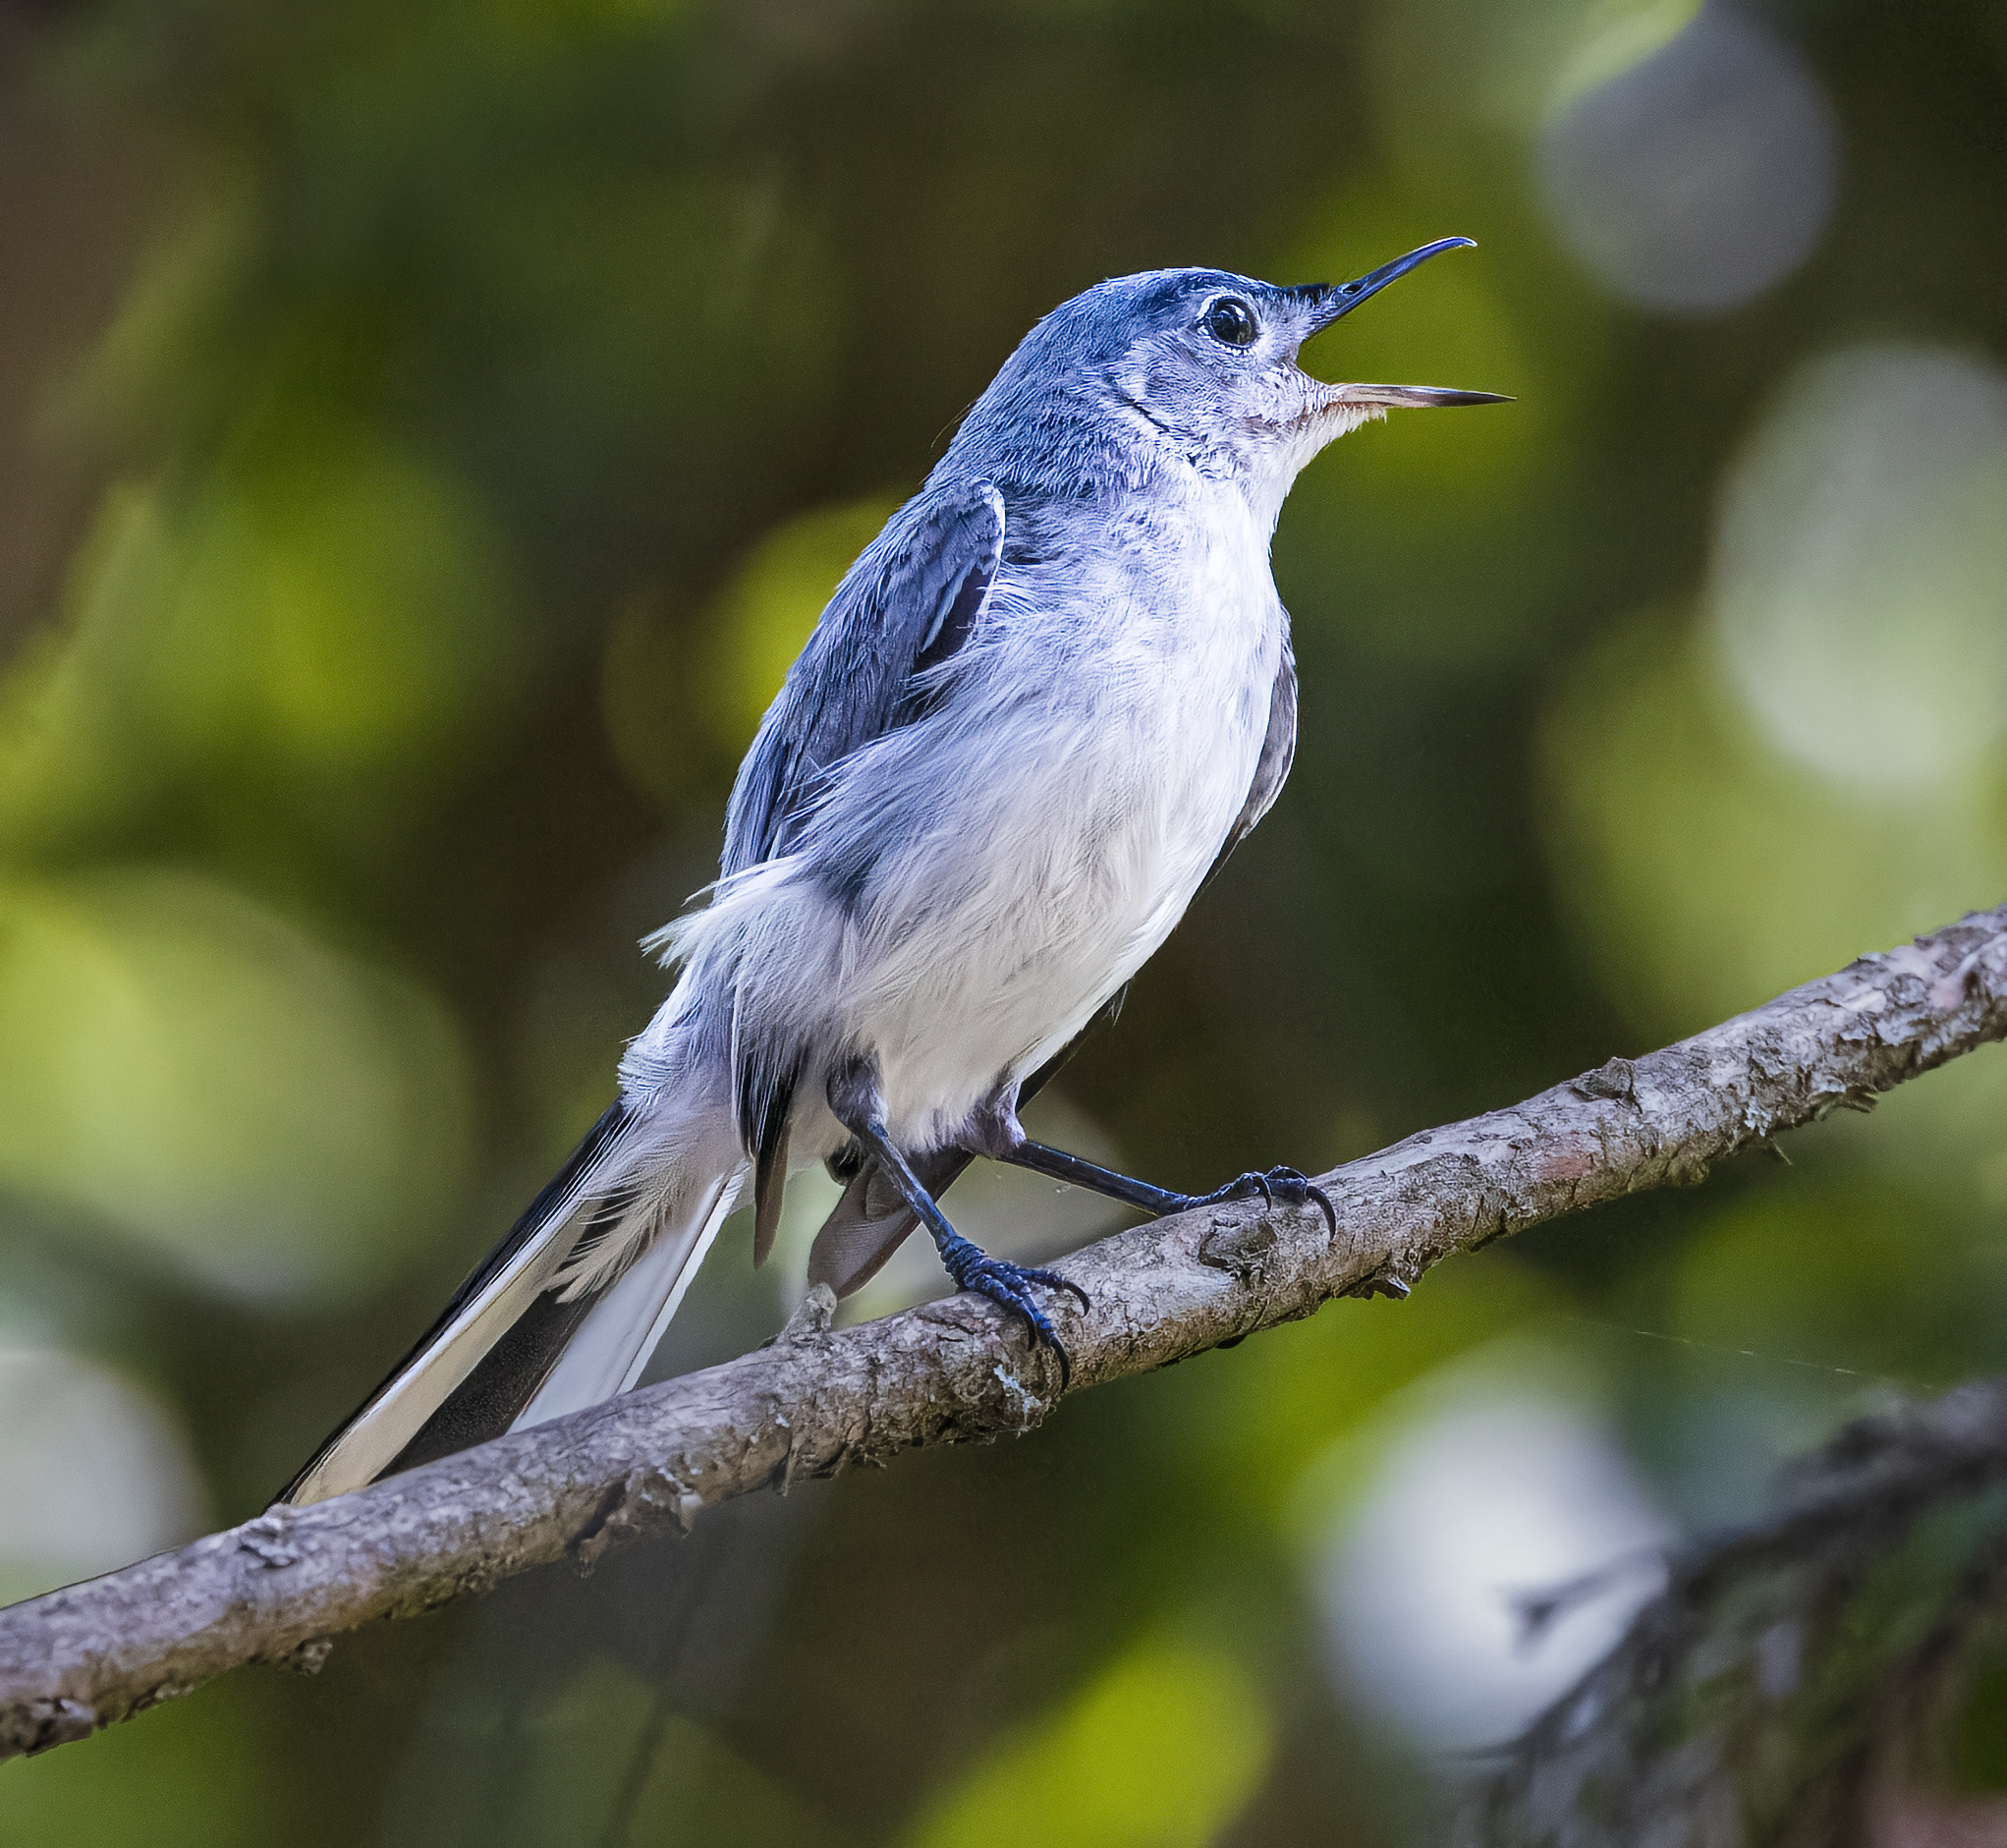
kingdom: Animalia
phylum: Chordata
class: Aves
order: Passeriformes
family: Polioptilidae
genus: Polioptila
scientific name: Polioptila caerulea
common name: Blue-gray gnatcatcher
